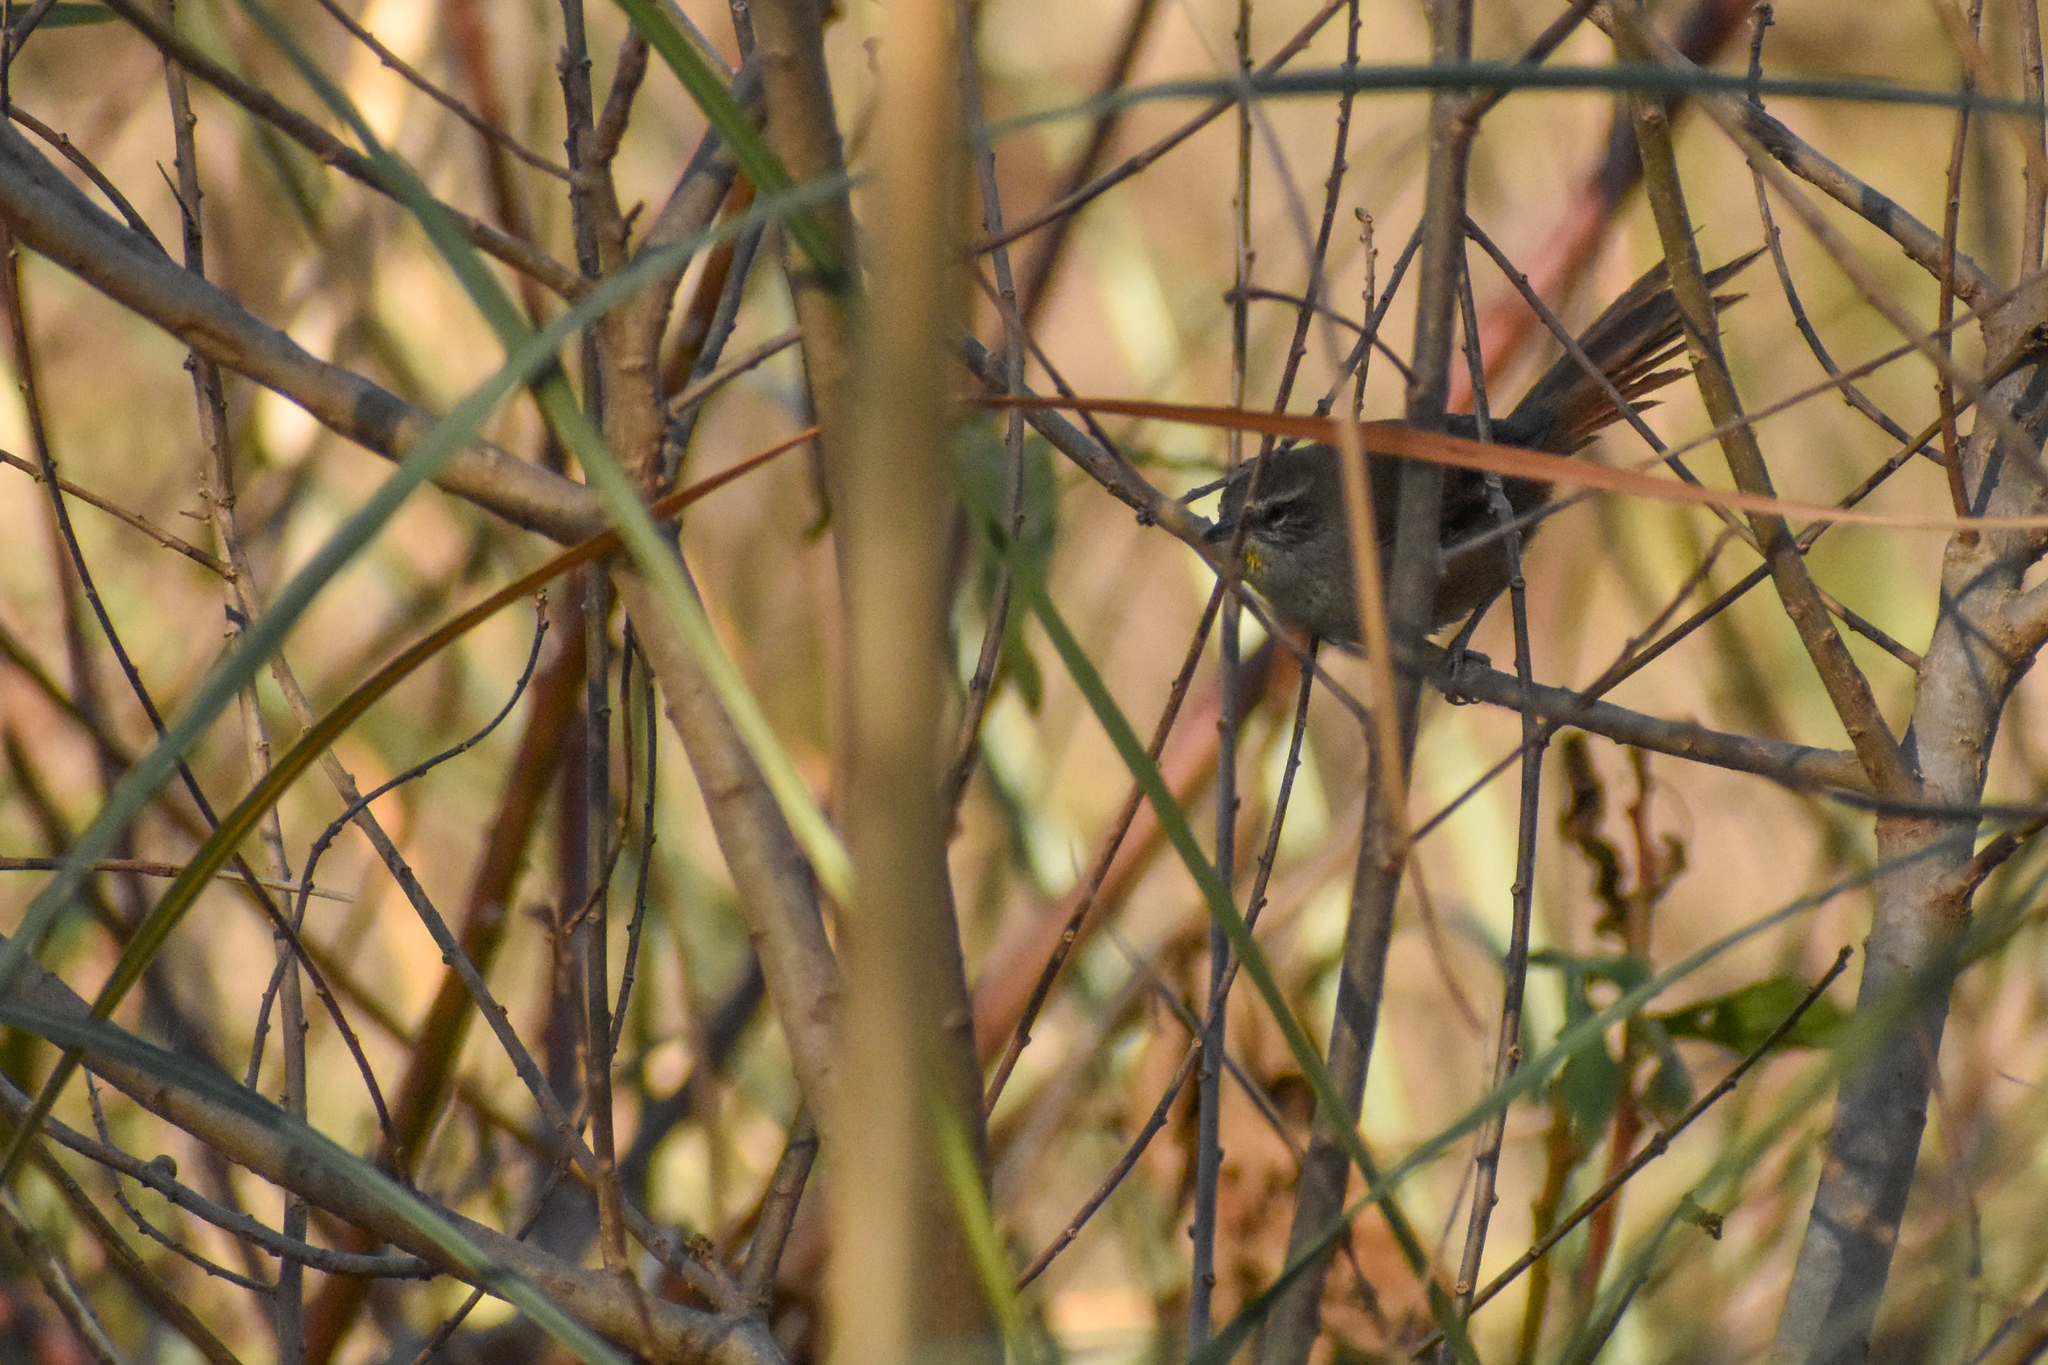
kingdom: Animalia
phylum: Chordata
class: Aves
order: Passeriformes
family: Furnariidae
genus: Cranioleuca
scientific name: Cranioleuca sulphurifera
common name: Sulphur-bearded spinetail
